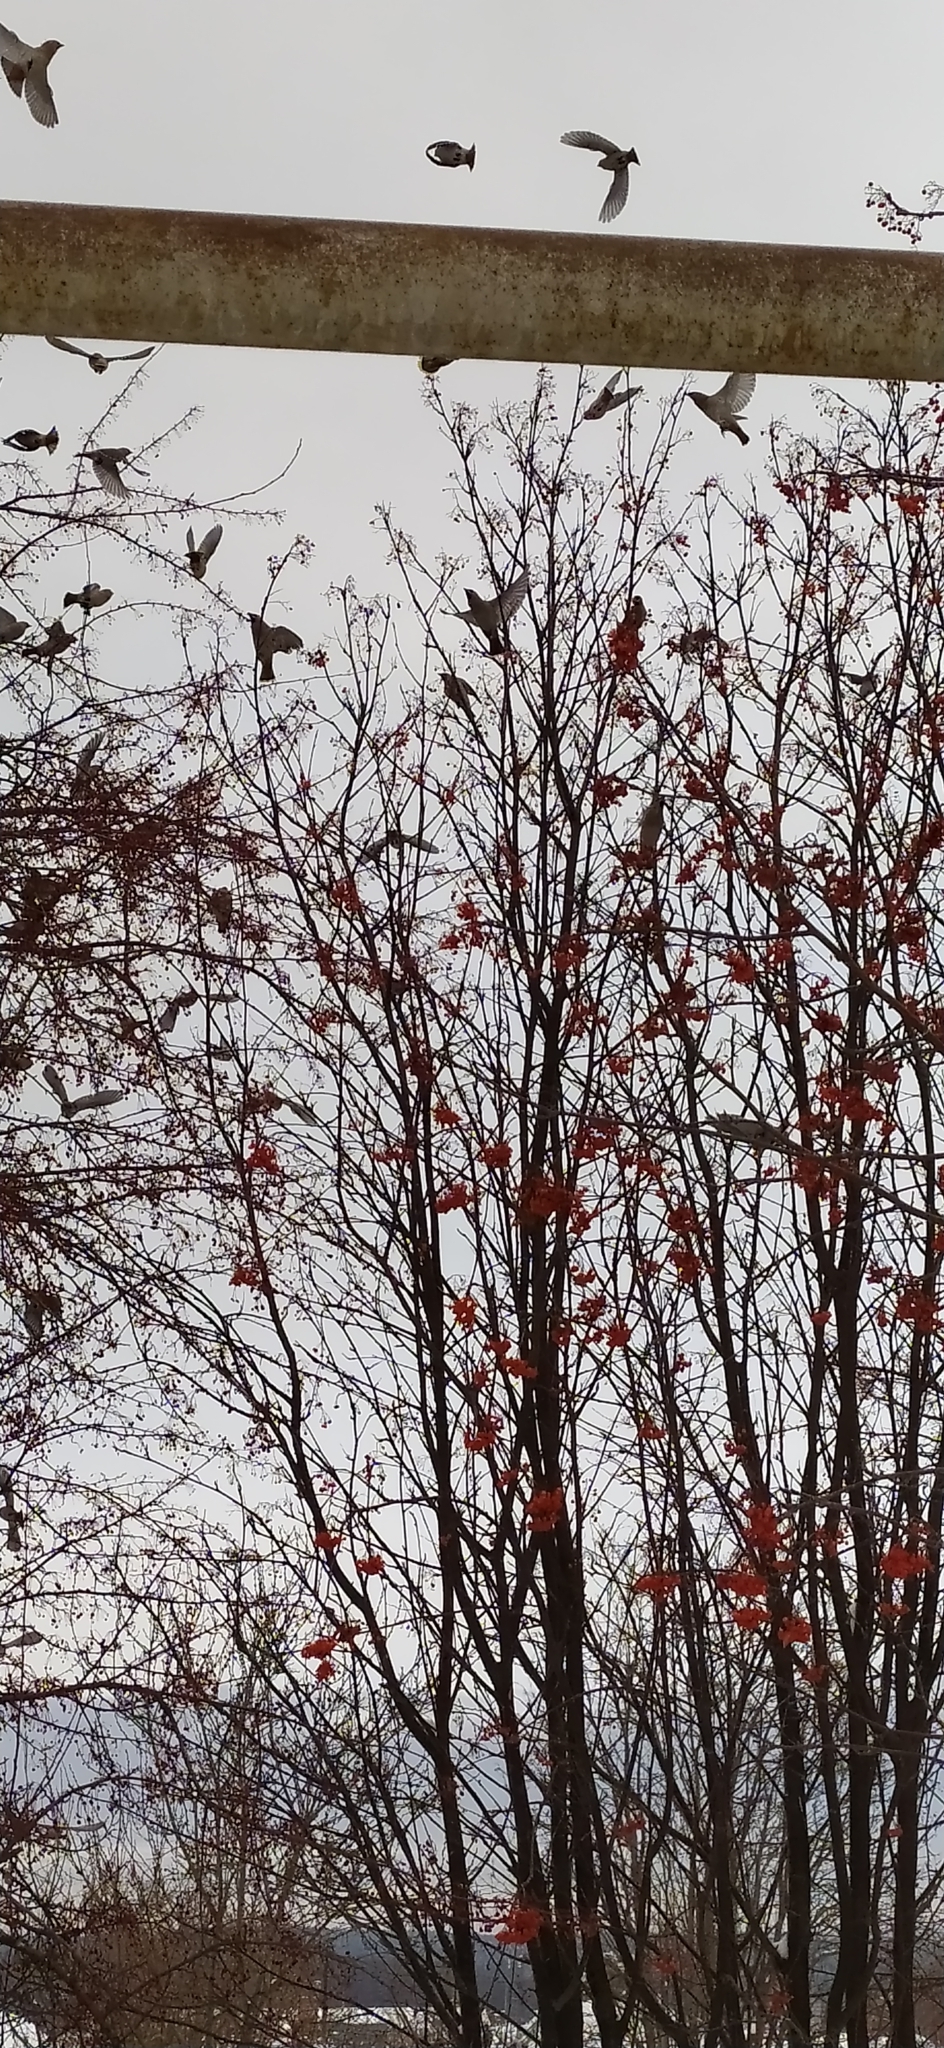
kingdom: Animalia
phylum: Chordata
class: Aves
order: Passeriformes
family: Bombycillidae
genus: Bombycilla
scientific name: Bombycilla garrulus
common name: Bohemian waxwing
